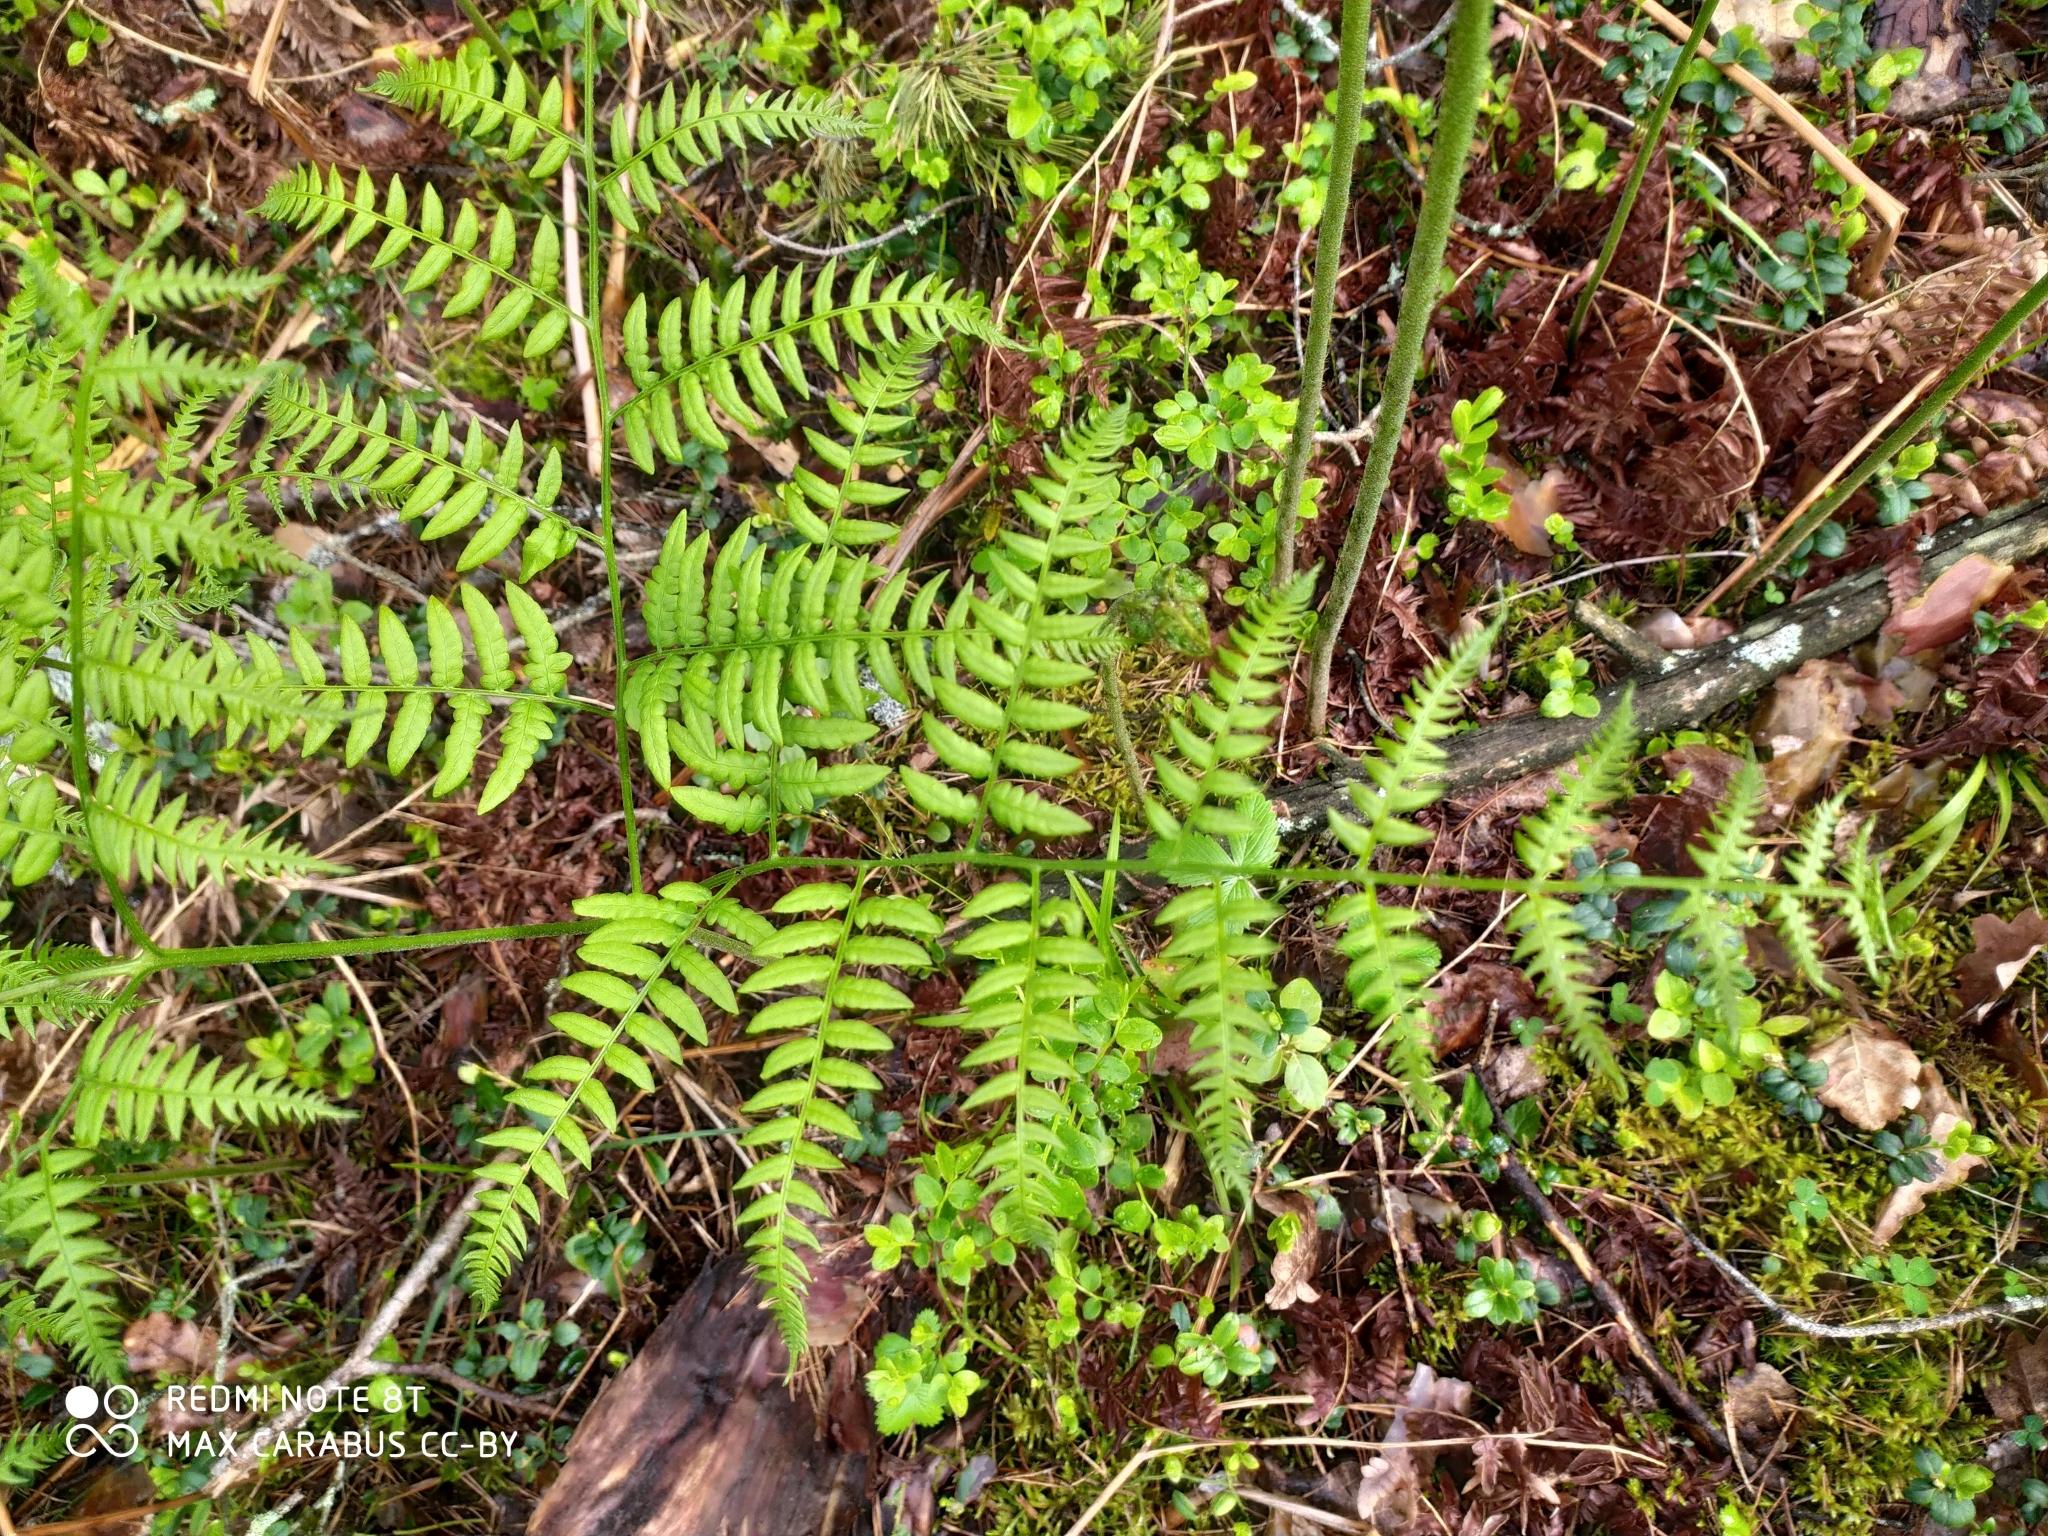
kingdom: Plantae
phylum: Tracheophyta
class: Polypodiopsida
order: Polypodiales
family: Dennstaedtiaceae
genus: Pteridium
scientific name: Pteridium aquilinum
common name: Bracken
